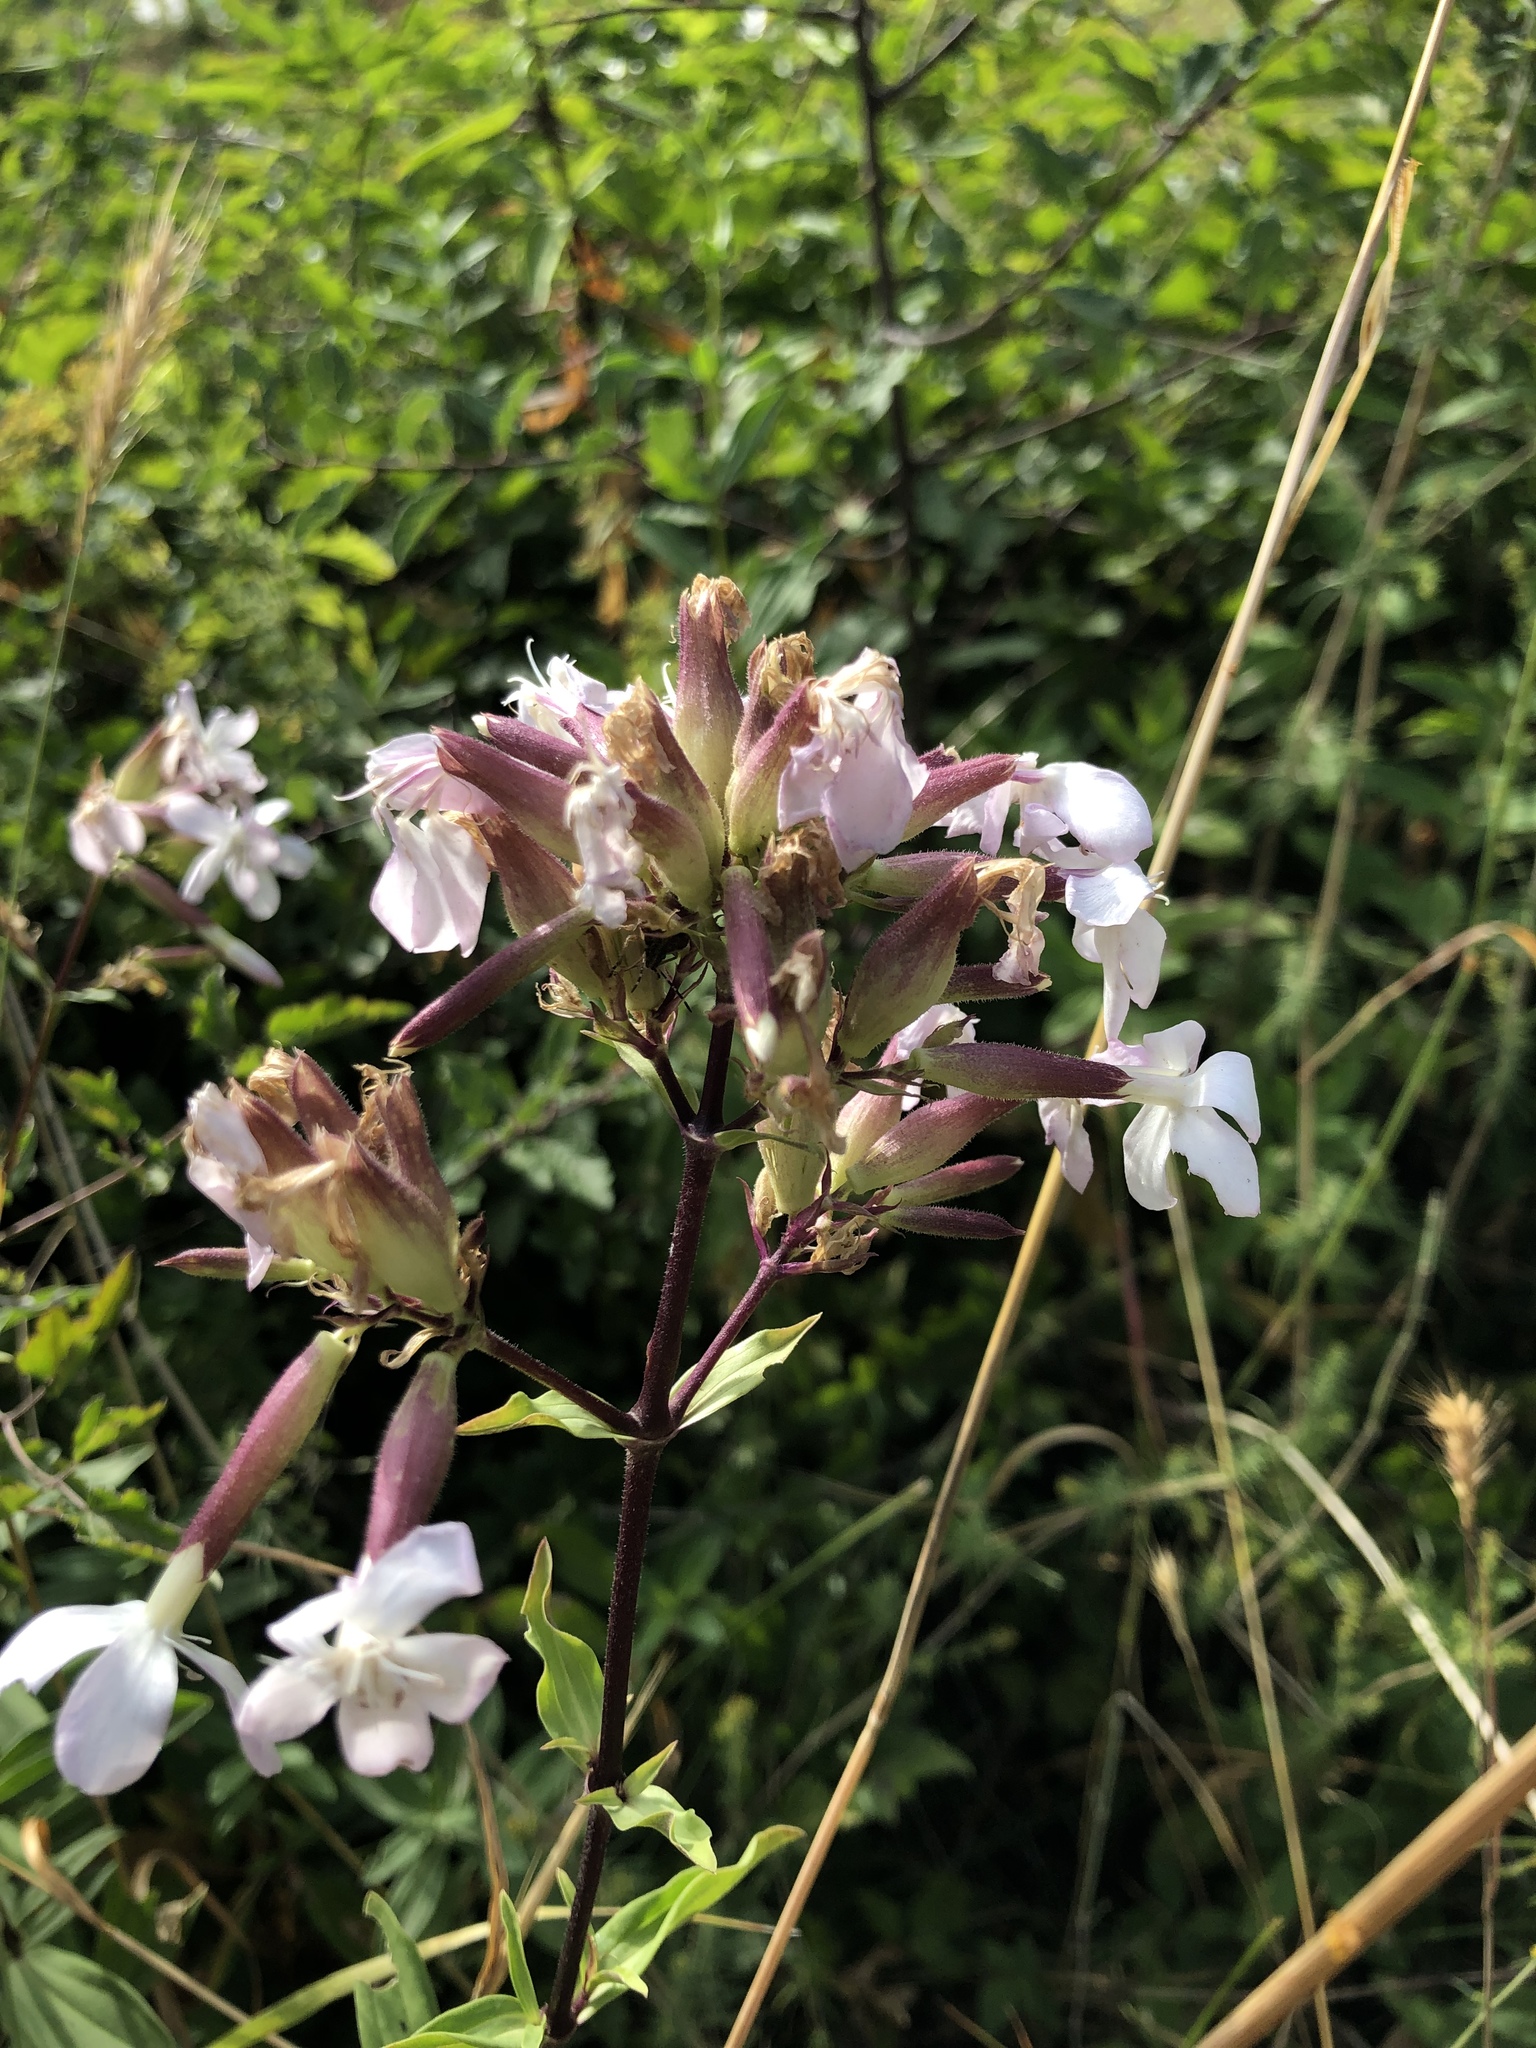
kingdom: Plantae
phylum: Tracheophyta
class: Magnoliopsida
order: Caryophyllales
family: Caryophyllaceae
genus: Saponaria
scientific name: Saponaria officinalis
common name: Soapwort
